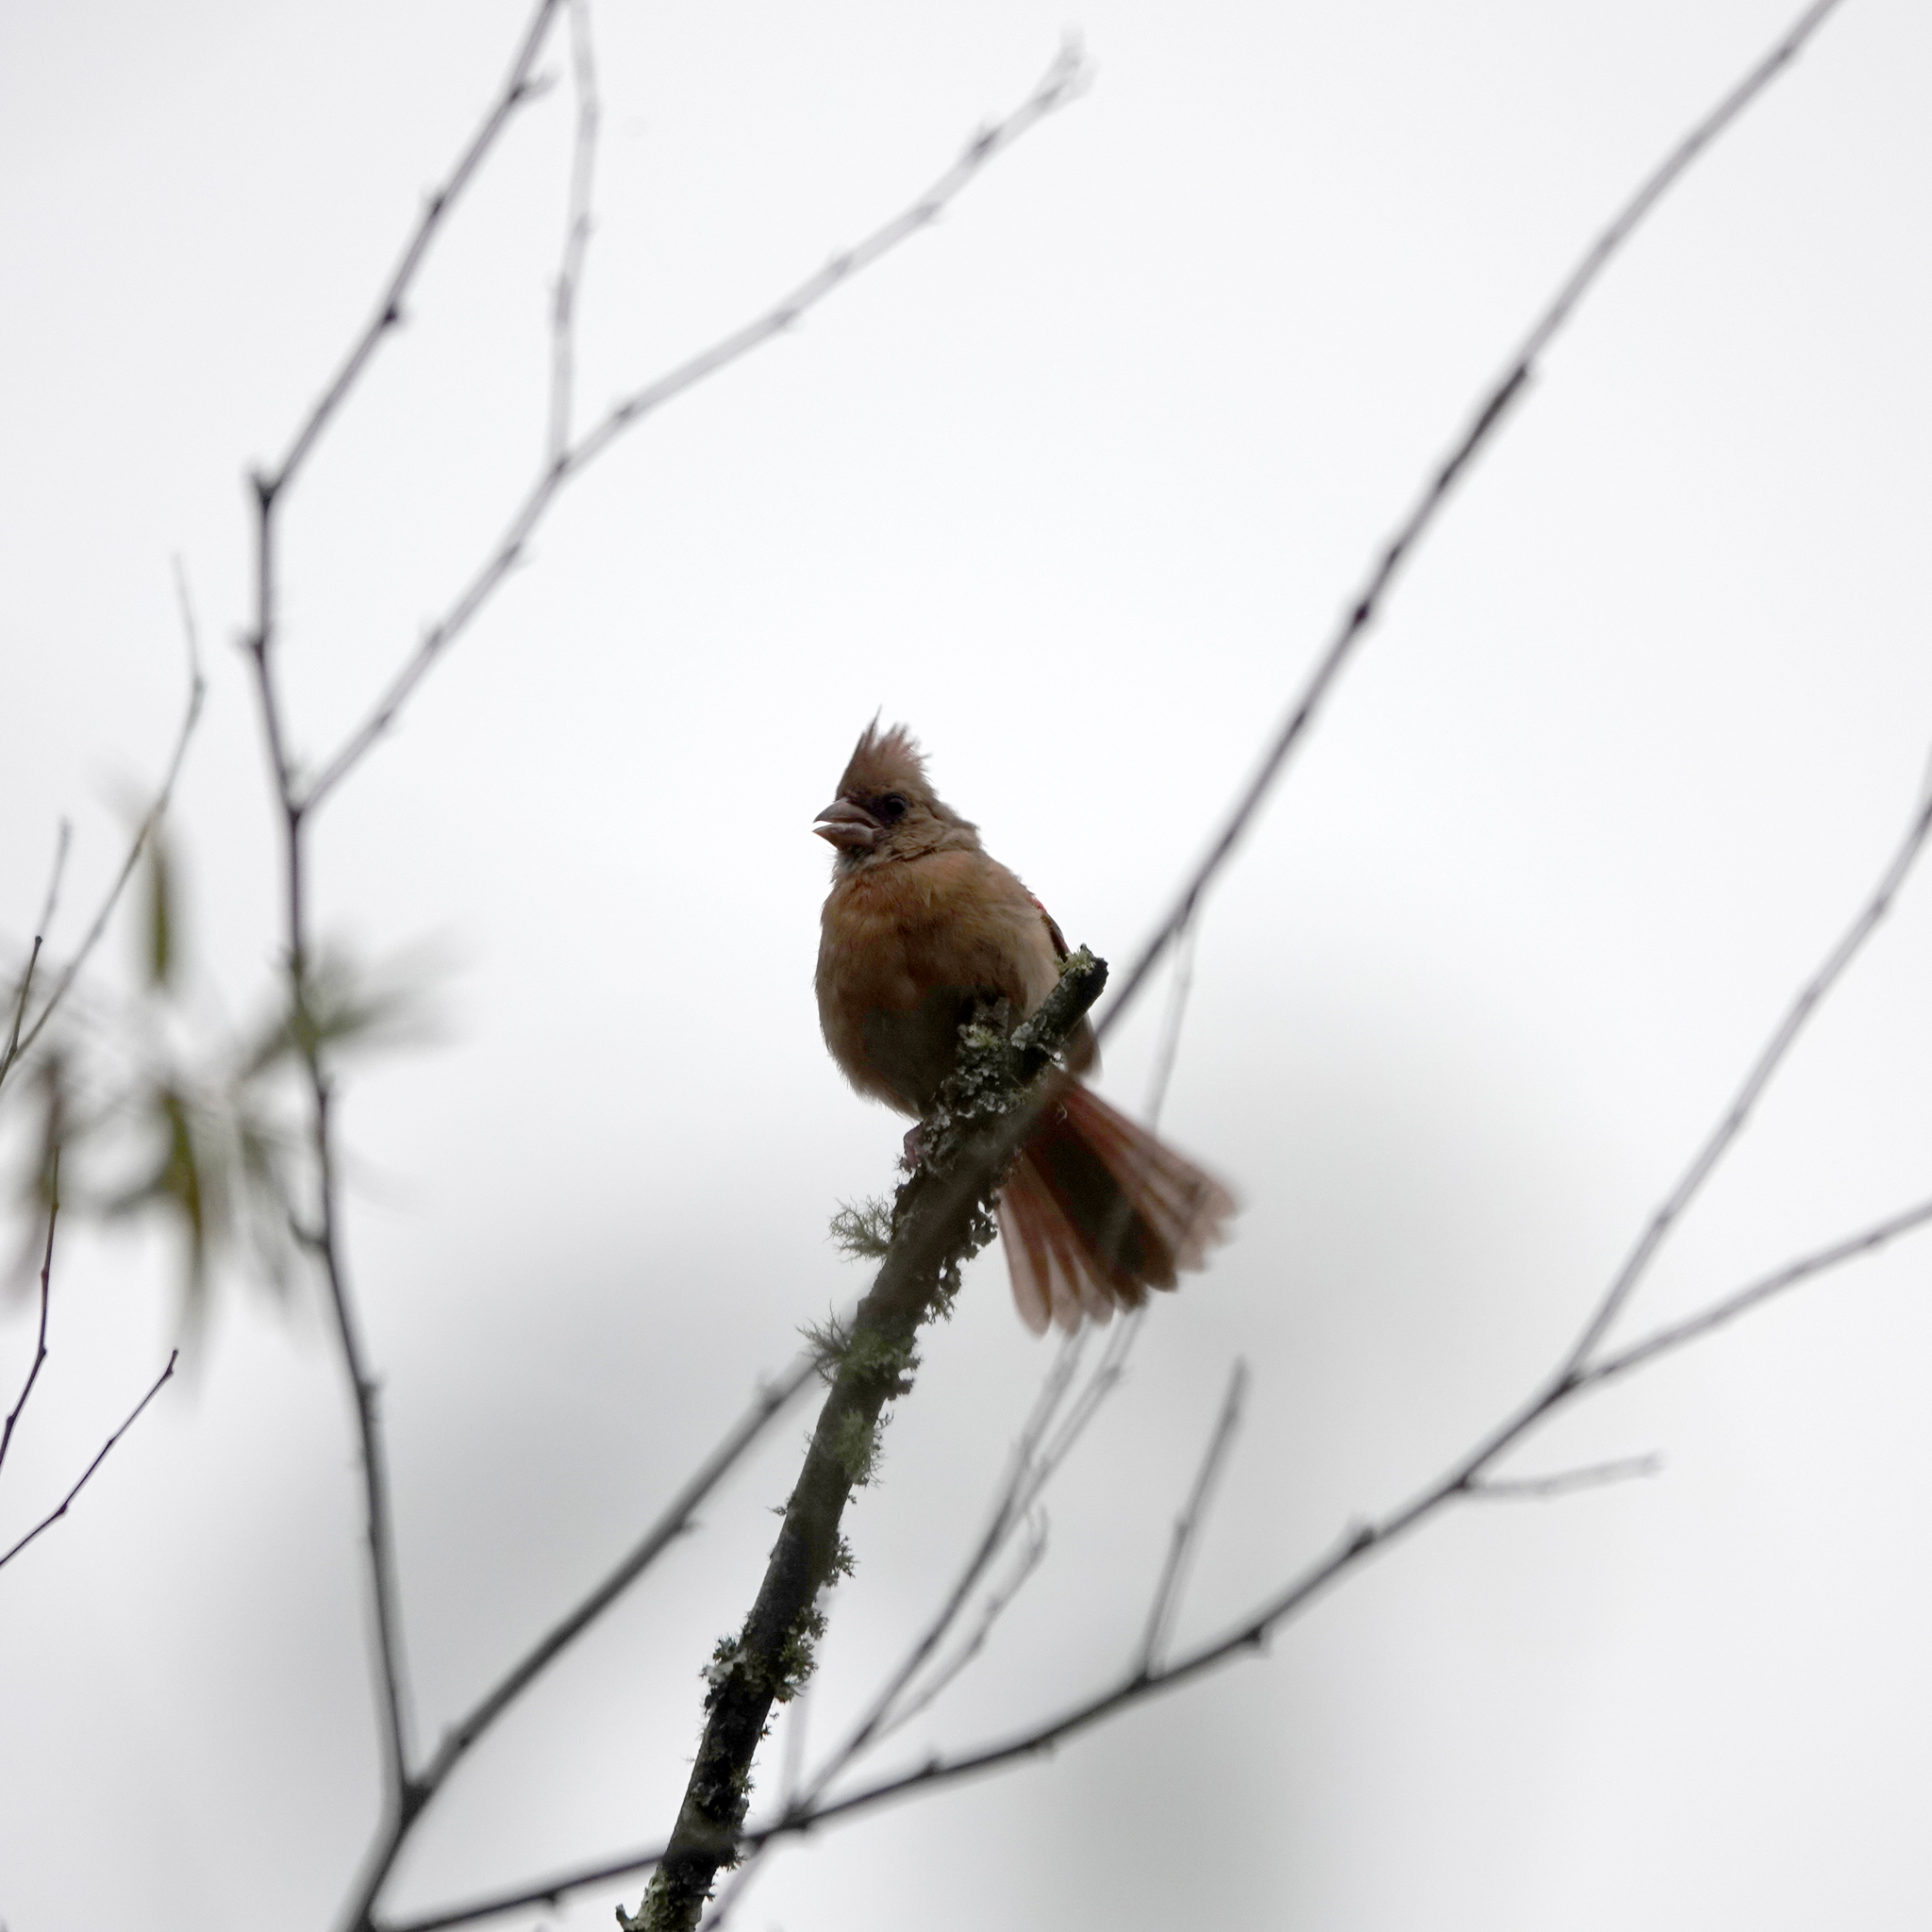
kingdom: Animalia
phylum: Chordata
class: Aves
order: Passeriformes
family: Cardinalidae
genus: Cardinalis
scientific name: Cardinalis cardinalis
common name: Northern cardinal
